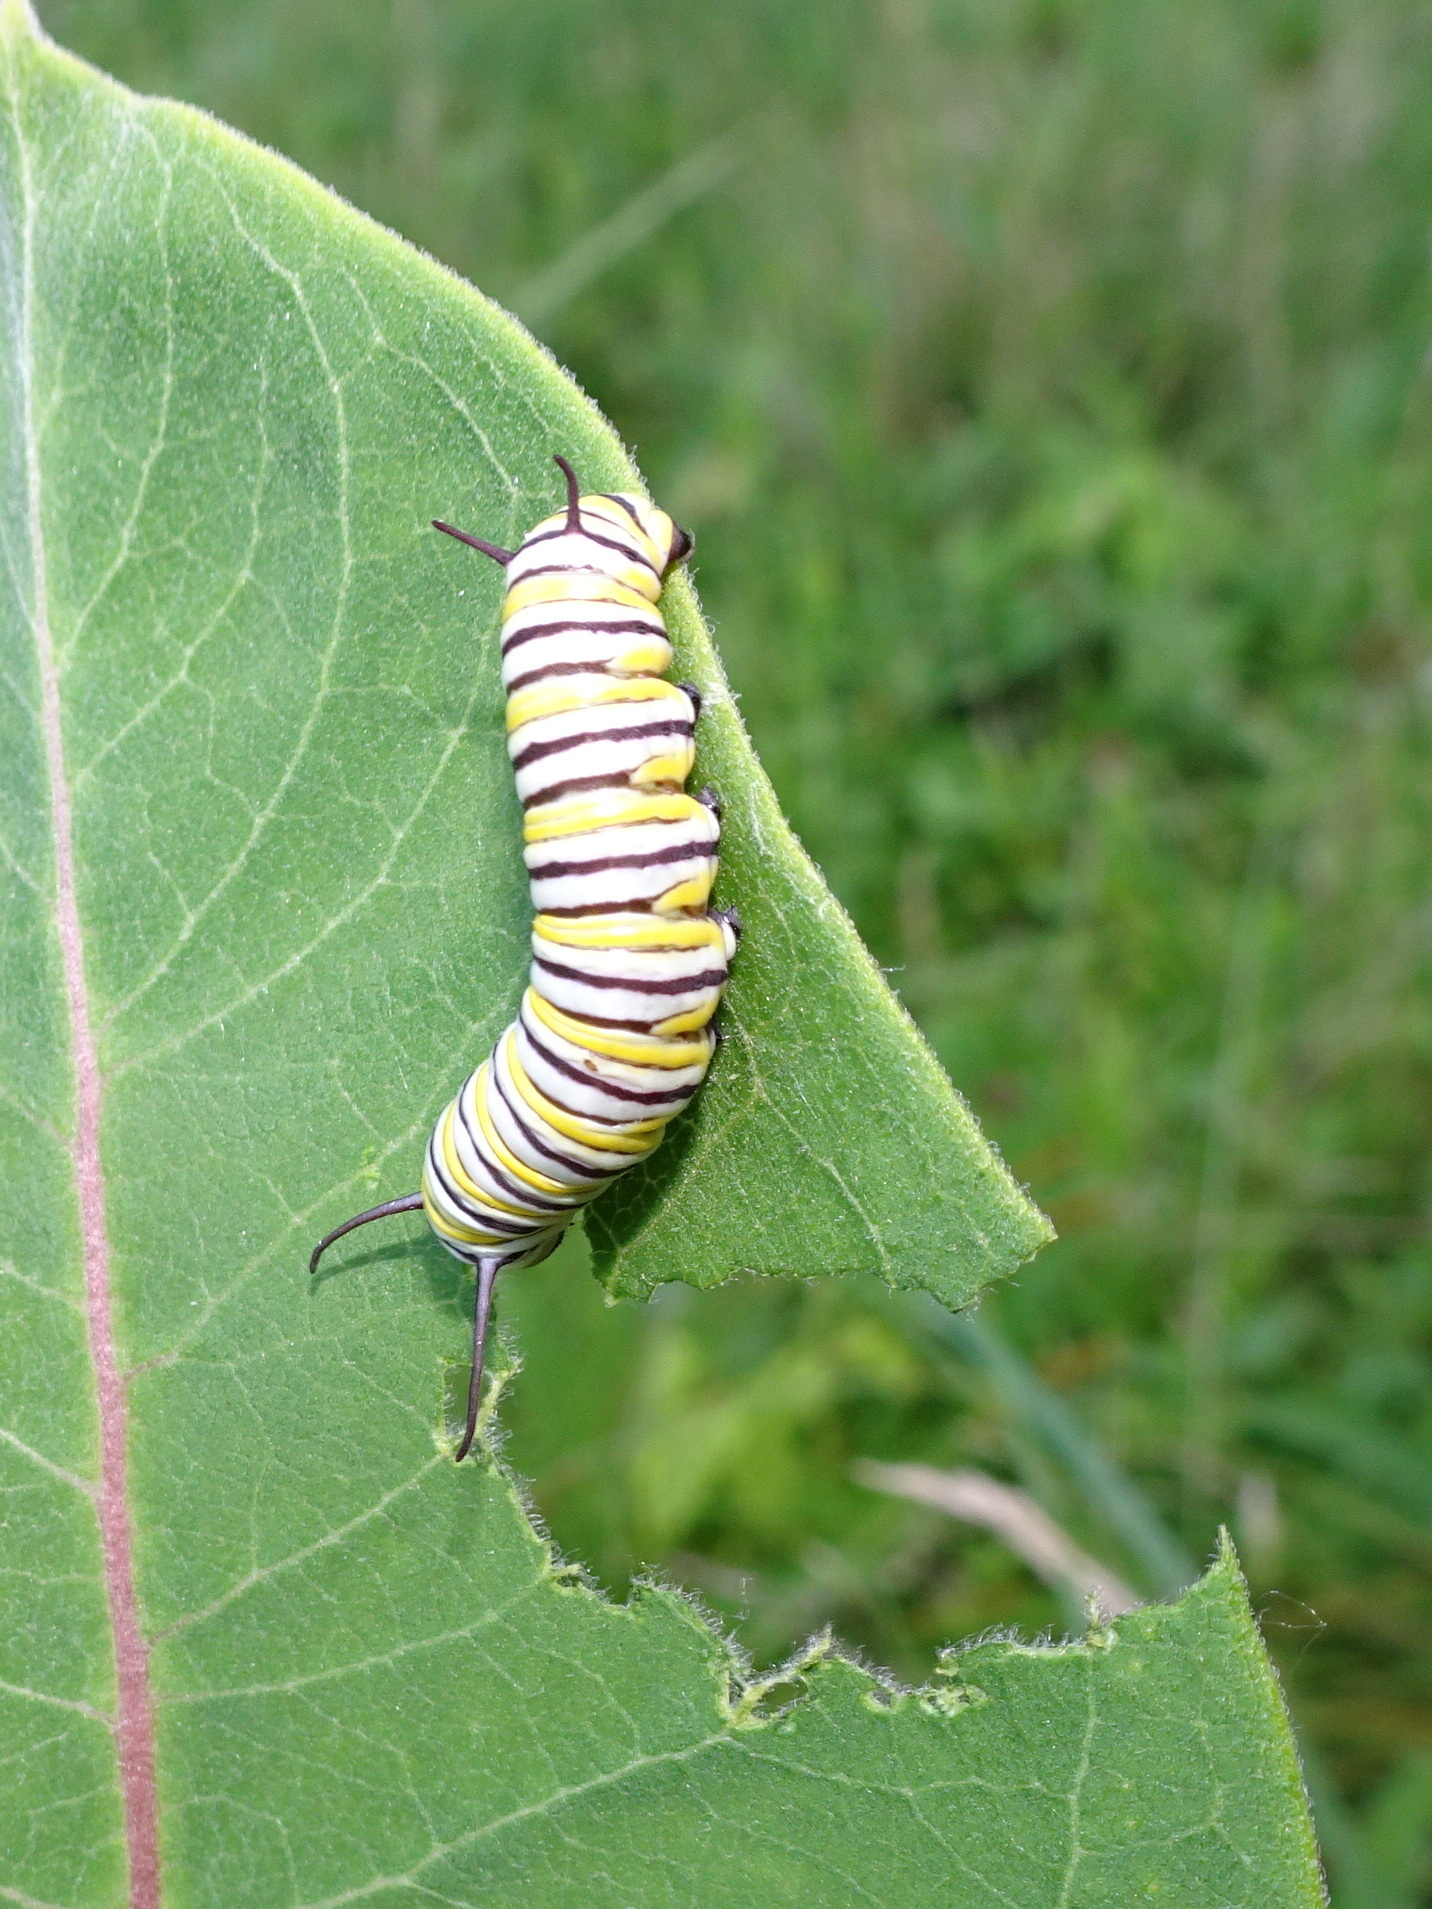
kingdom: Animalia
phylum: Arthropoda
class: Insecta
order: Lepidoptera
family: Nymphalidae
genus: Danaus
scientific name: Danaus plexippus
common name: Monarch
